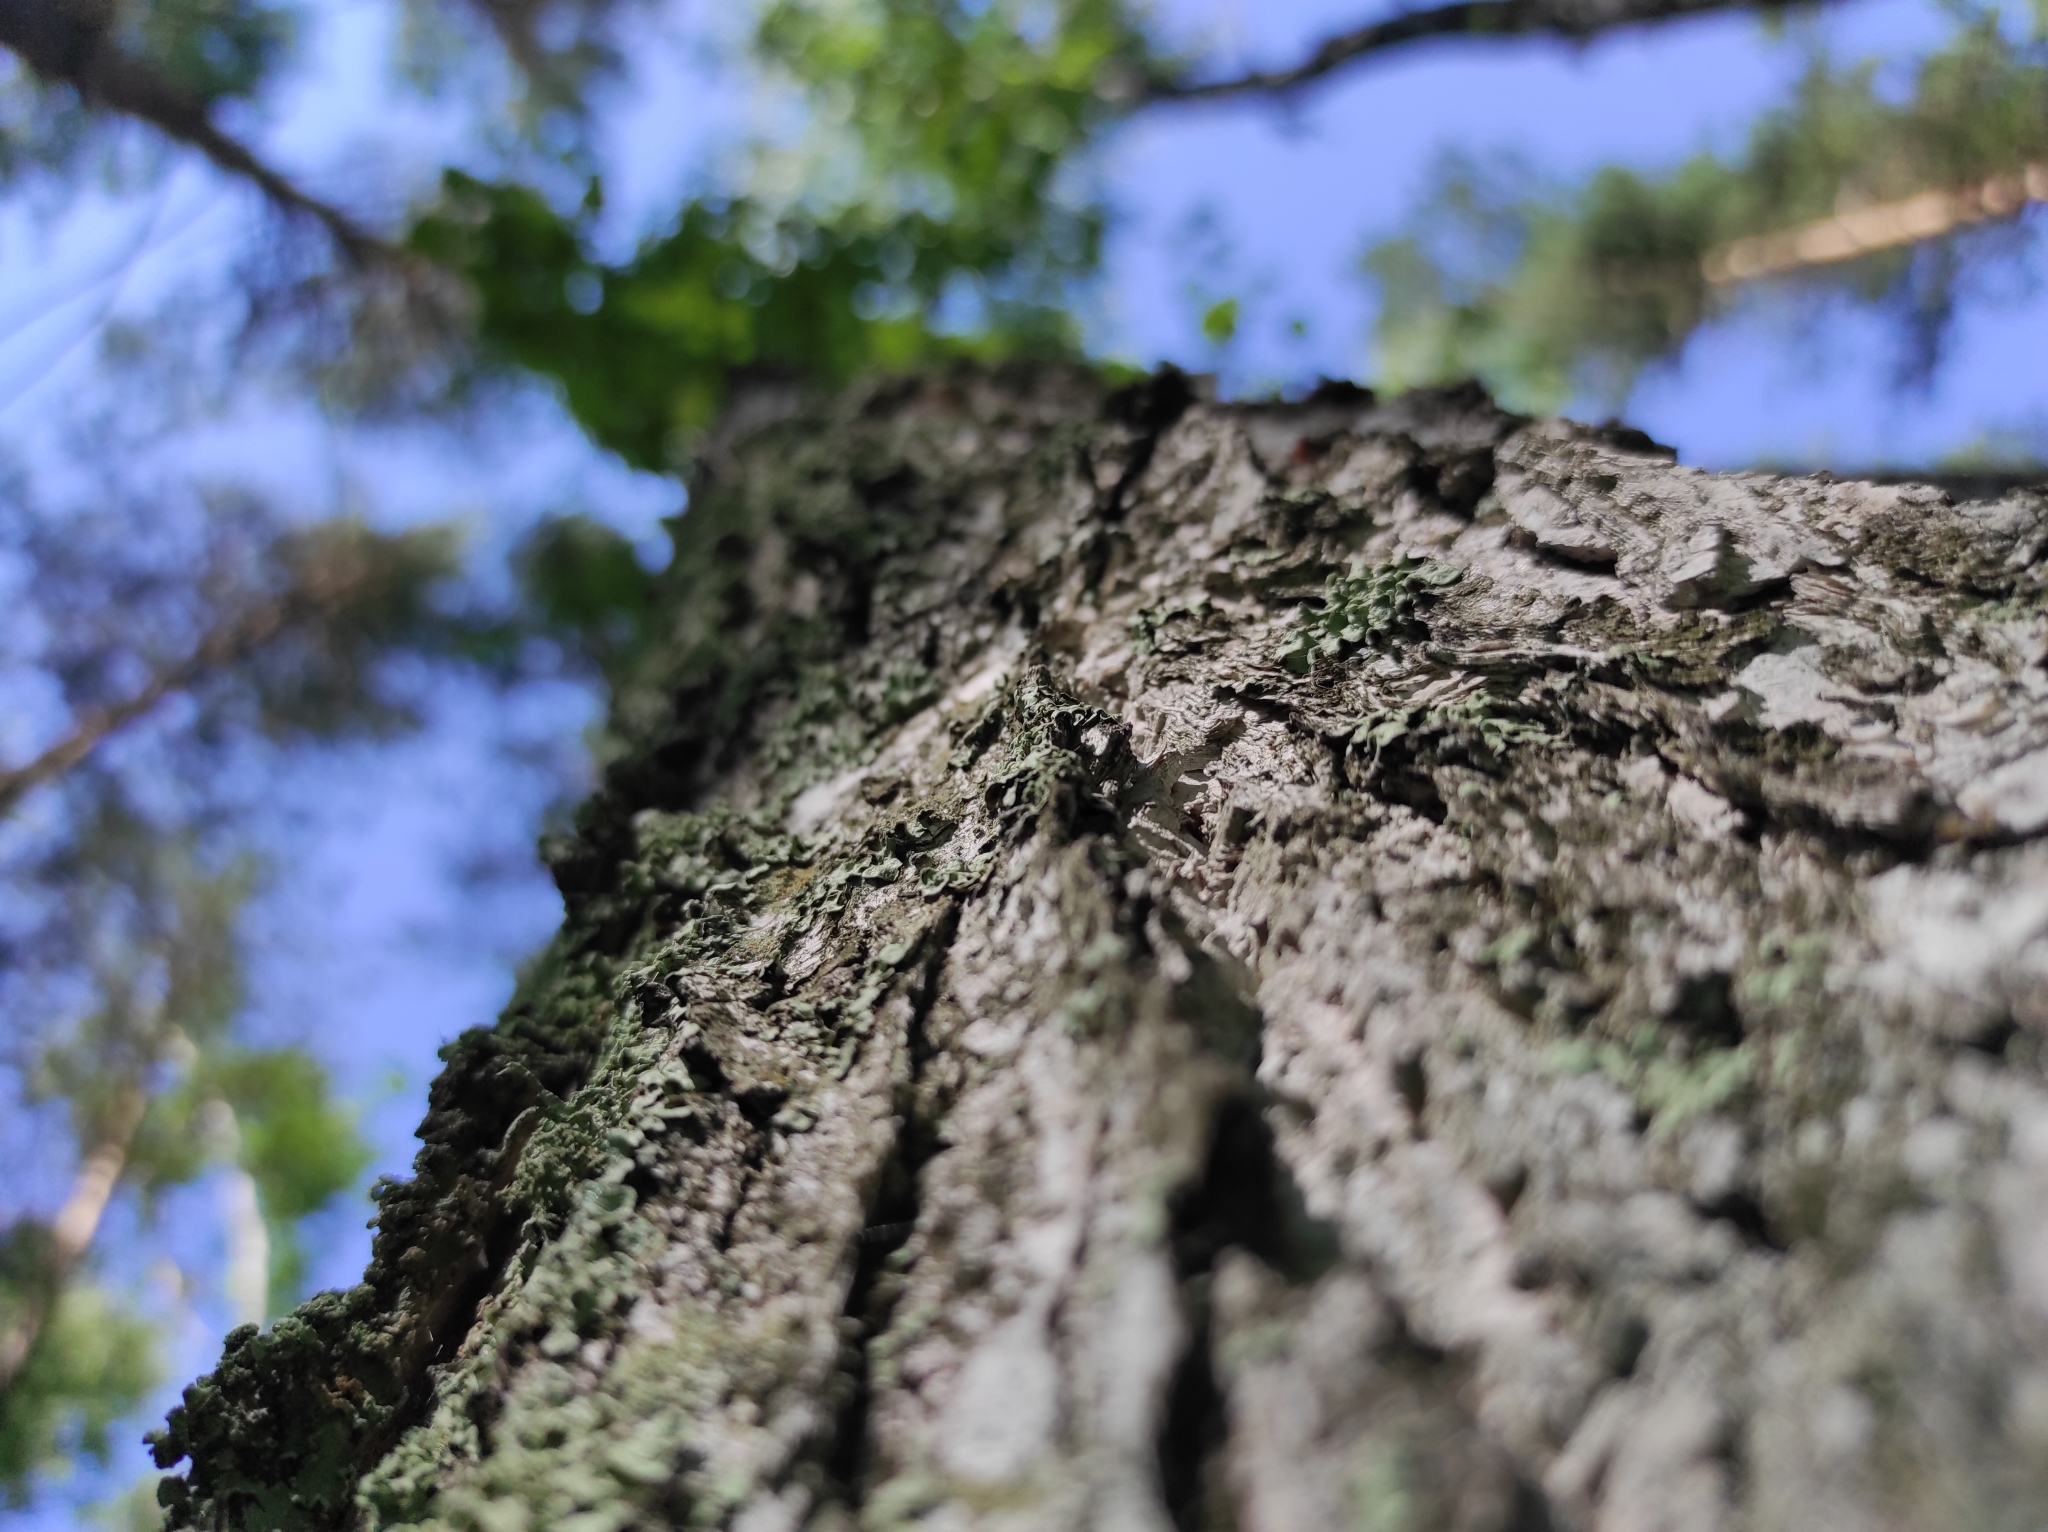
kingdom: Plantae
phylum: Tracheophyta
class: Magnoliopsida
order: Fagales
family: Betulaceae
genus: Betula
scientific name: Betula pendula
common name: Silver birch
